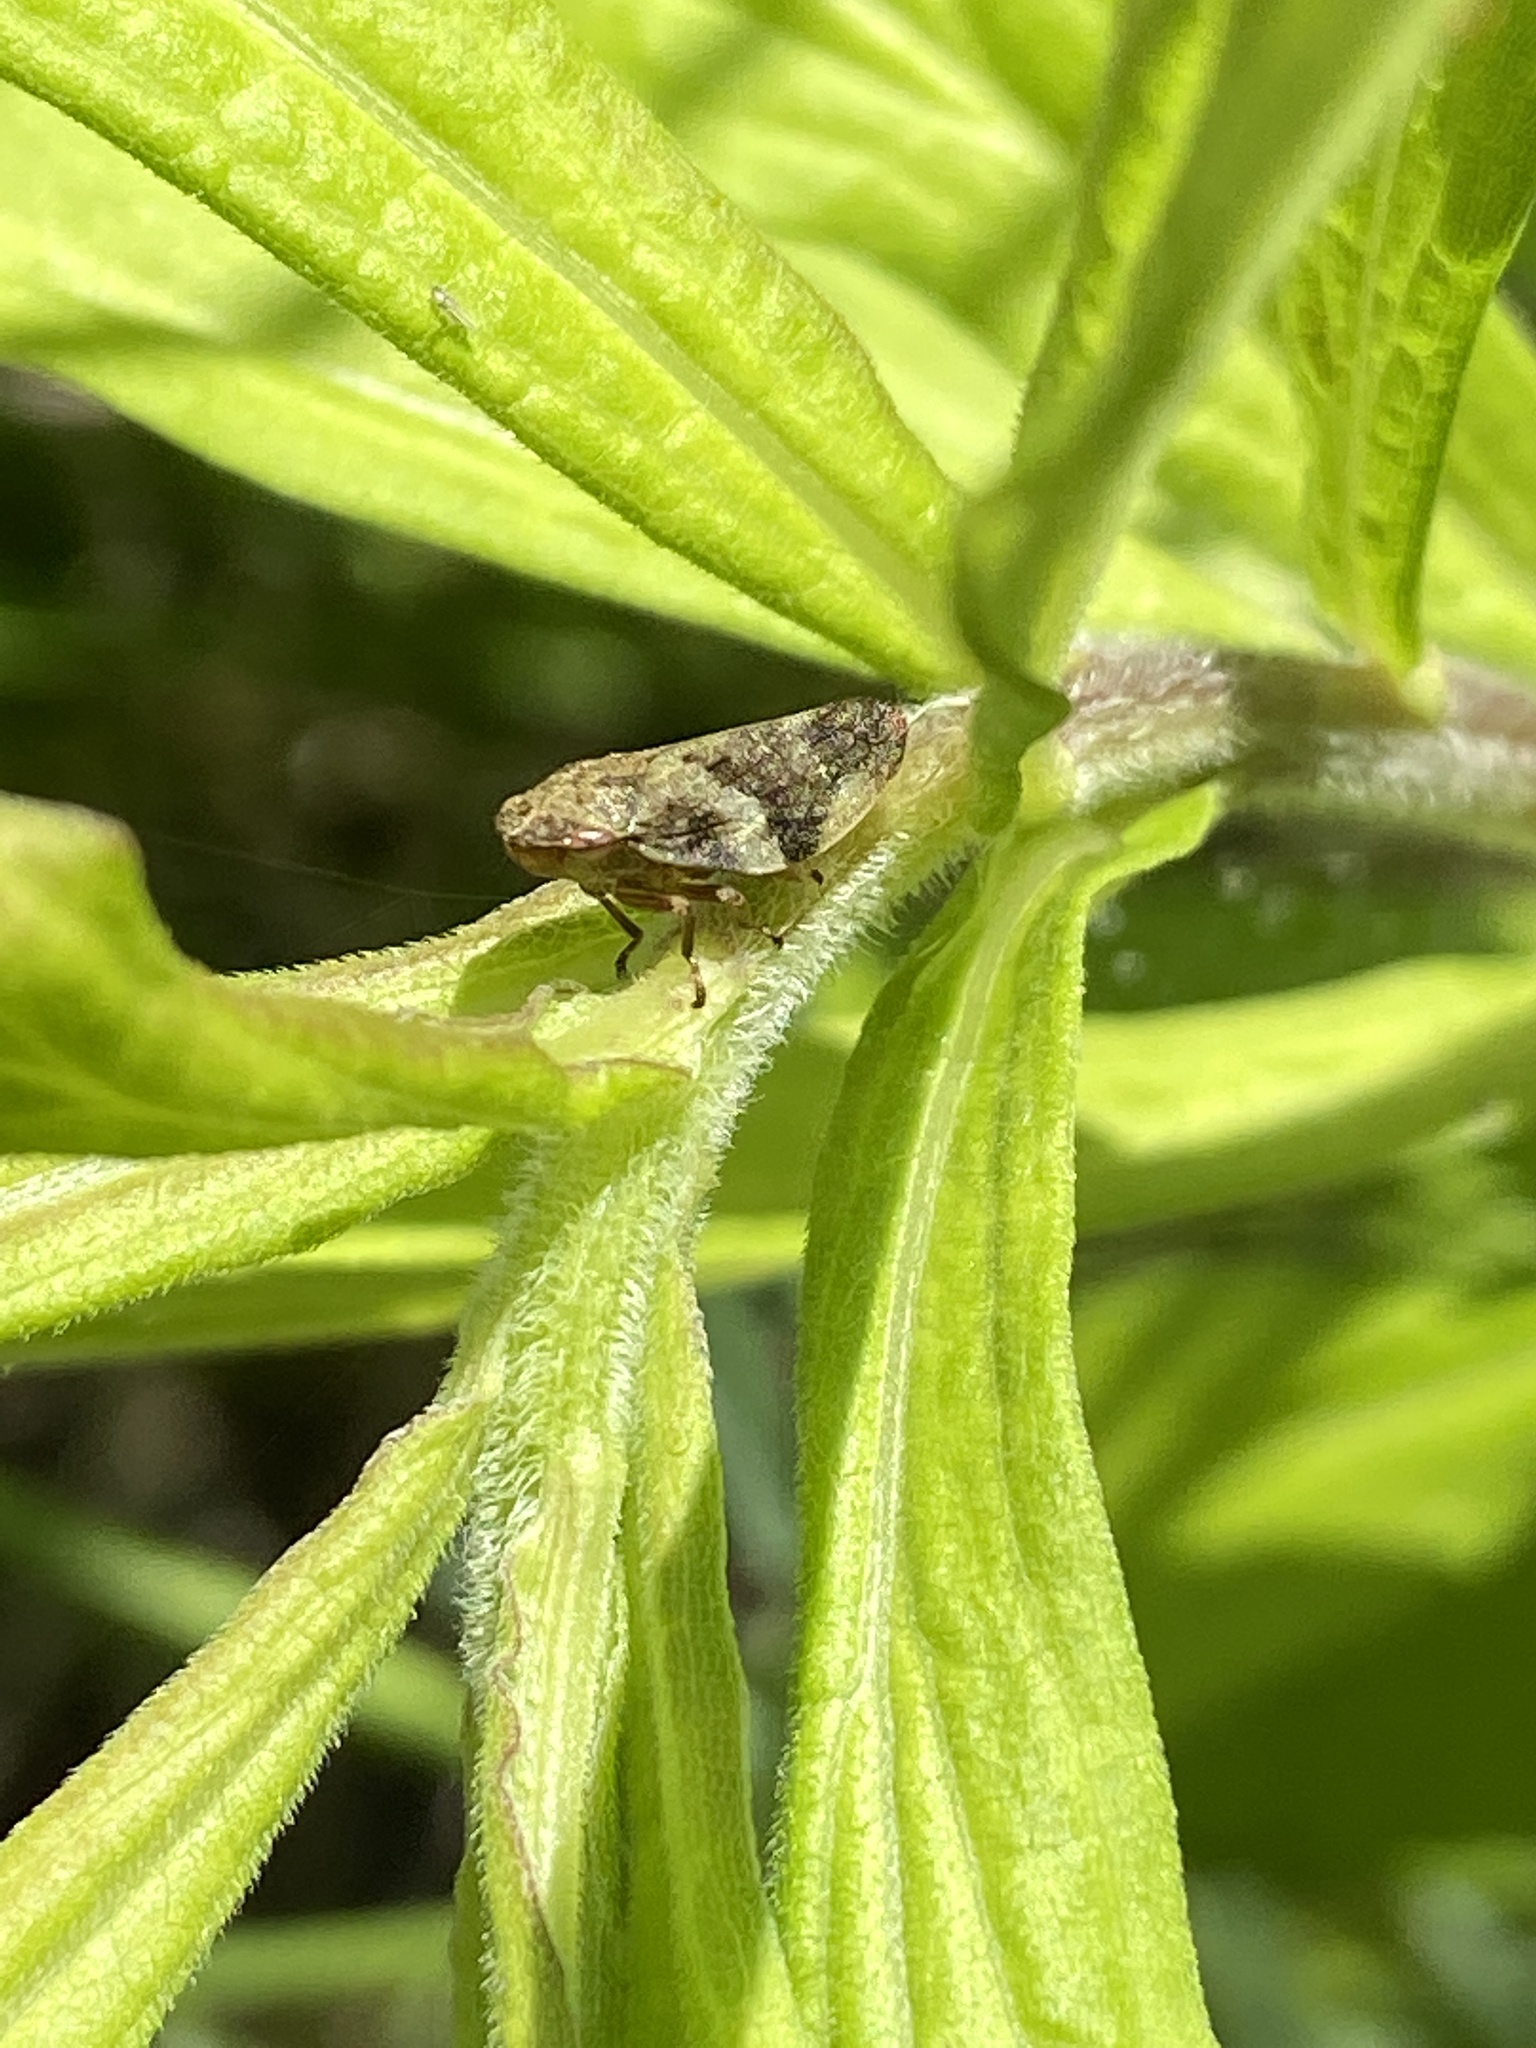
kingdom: Animalia
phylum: Arthropoda
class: Insecta
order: Hemiptera
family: Aphrophoridae
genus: Aphrophora
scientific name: Aphrophora alni
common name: European alder spittlebug
